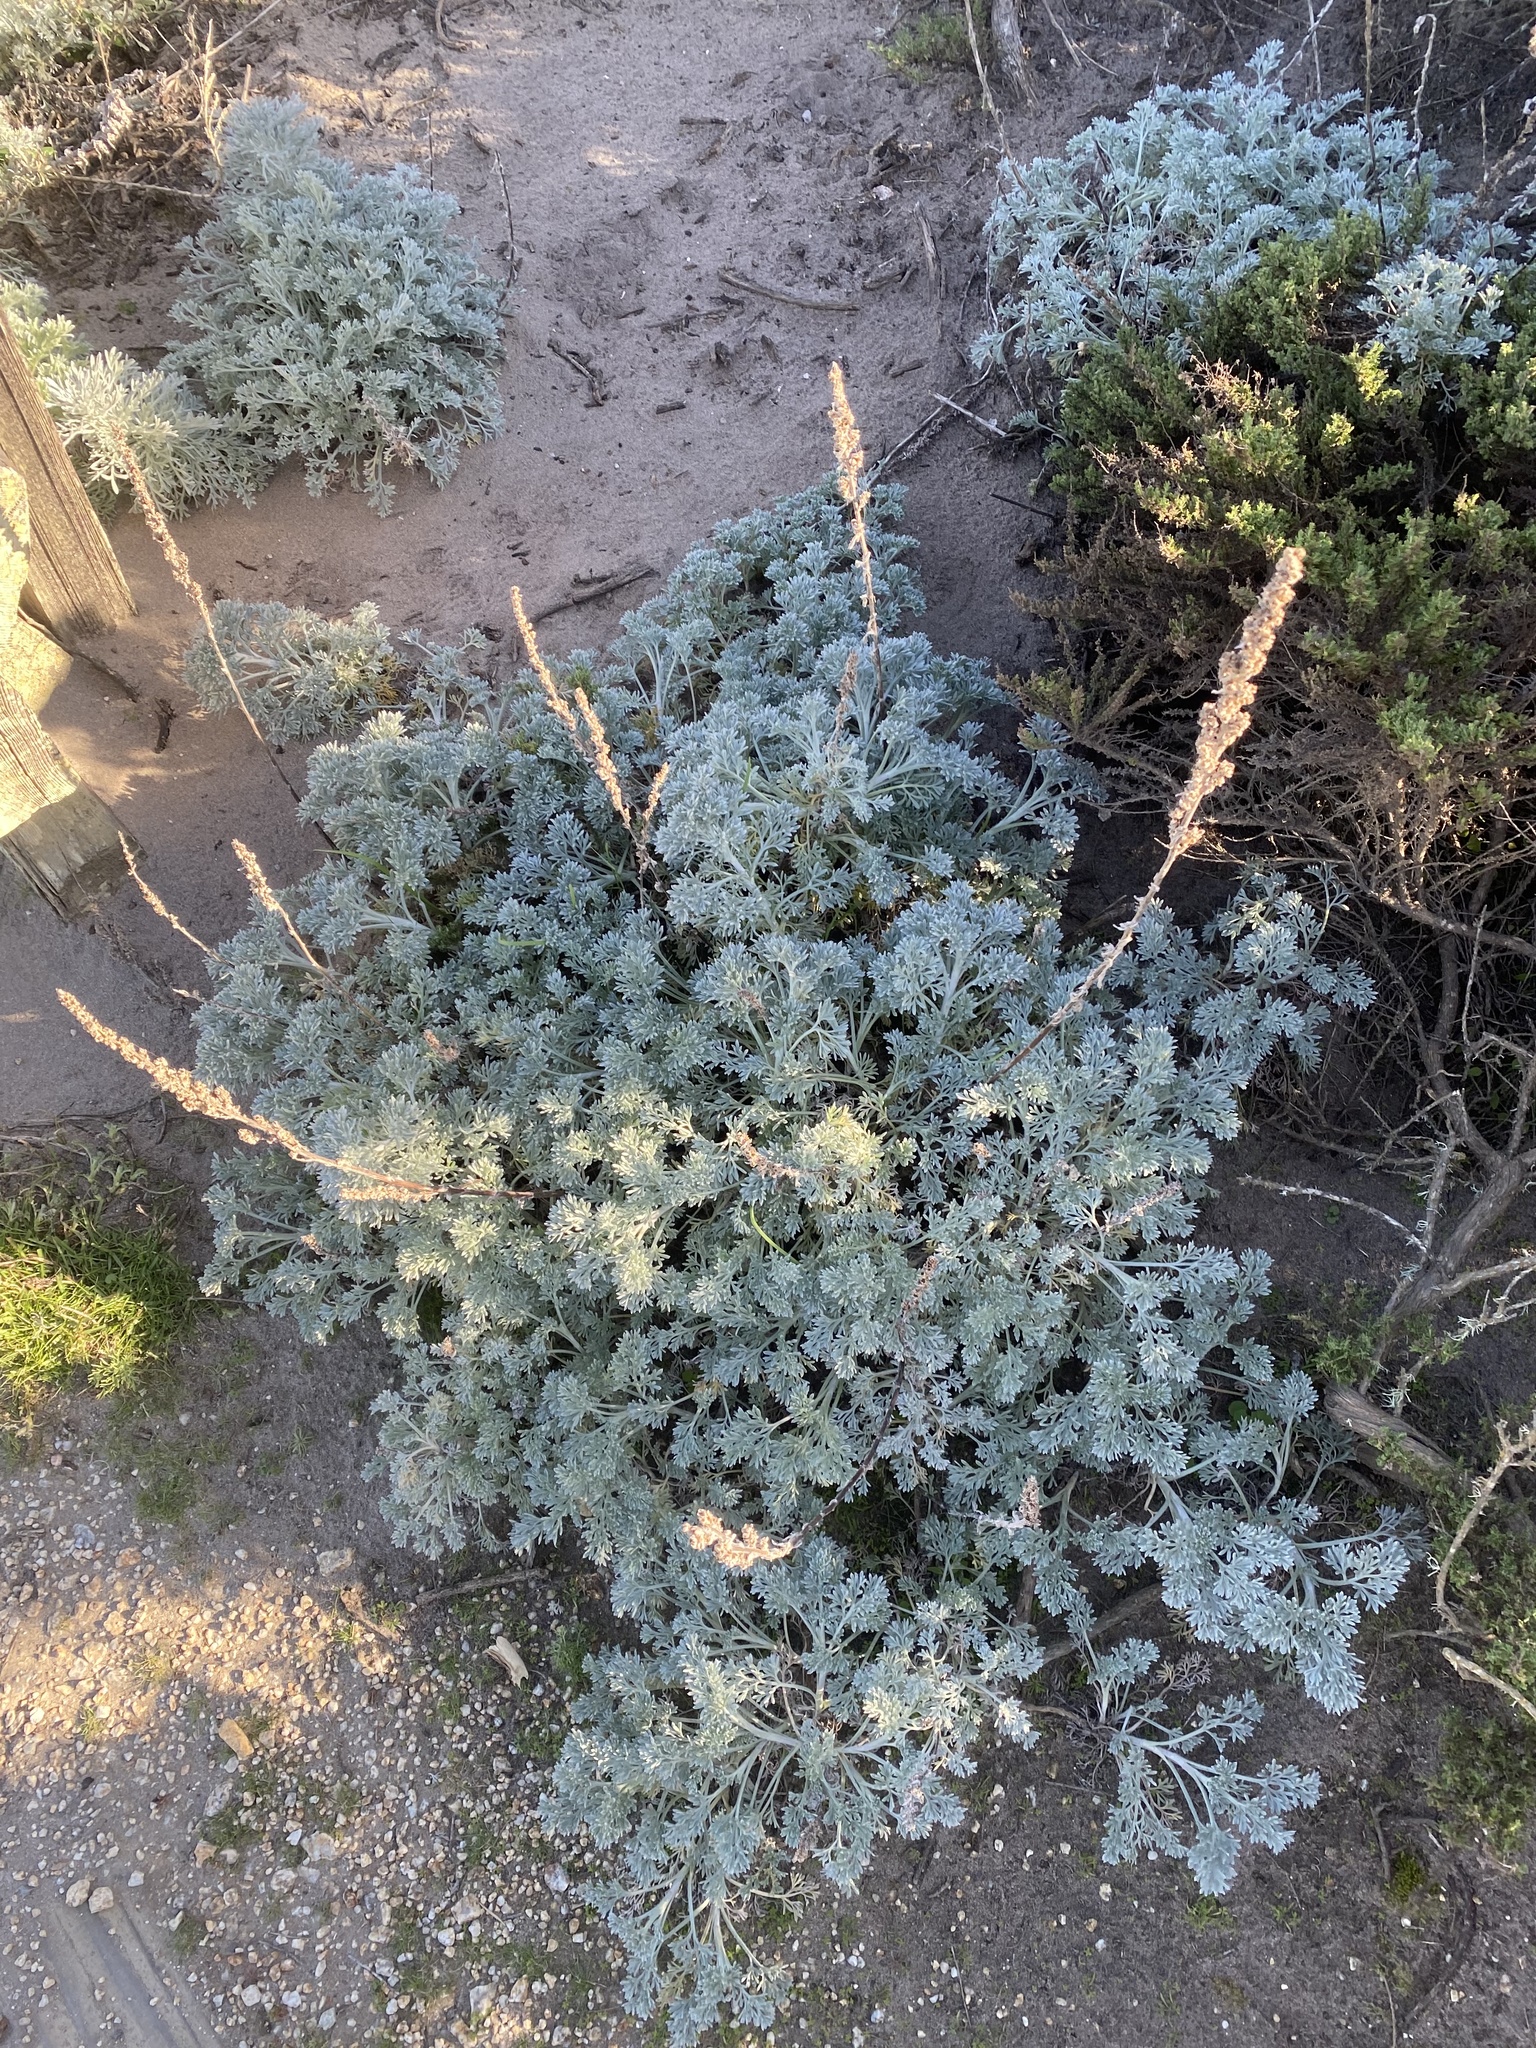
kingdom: Plantae
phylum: Tracheophyta
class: Magnoliopsida
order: Asterales
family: Asteraceae
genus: Artemisia
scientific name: Artemisia pycnocephala
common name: Coastal sagewort
